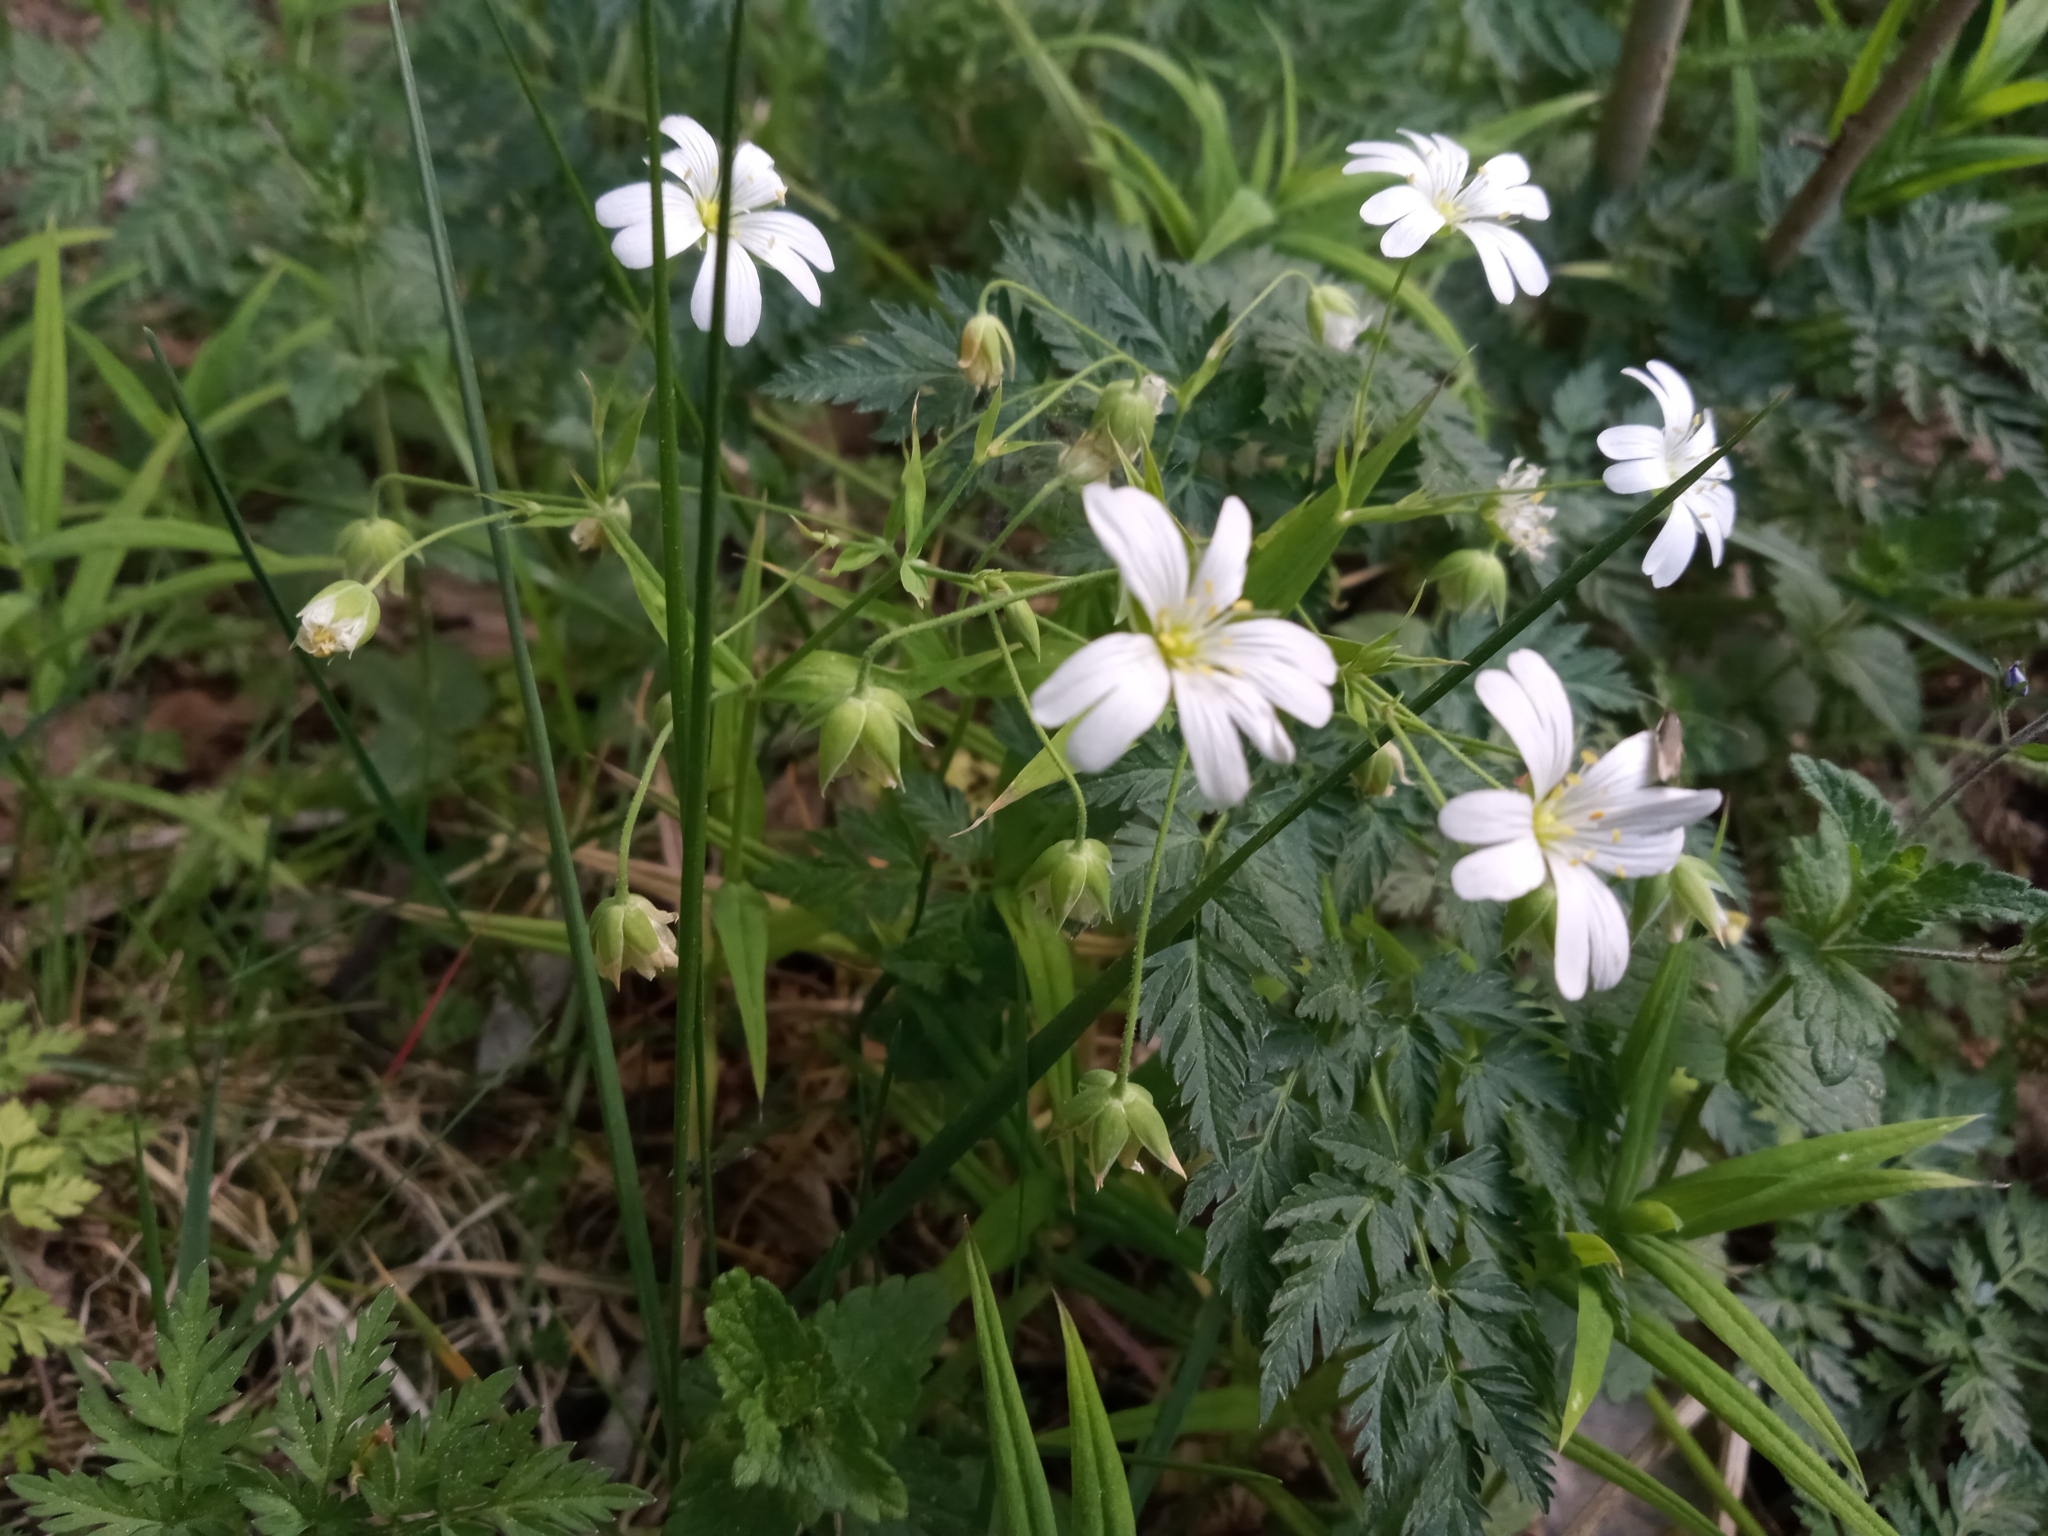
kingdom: Plantae
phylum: Tracheophyta
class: Magnoliopsida
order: Caryophyllales
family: Caryophyllaceae
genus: Rabelera
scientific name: Rabelera holostea
